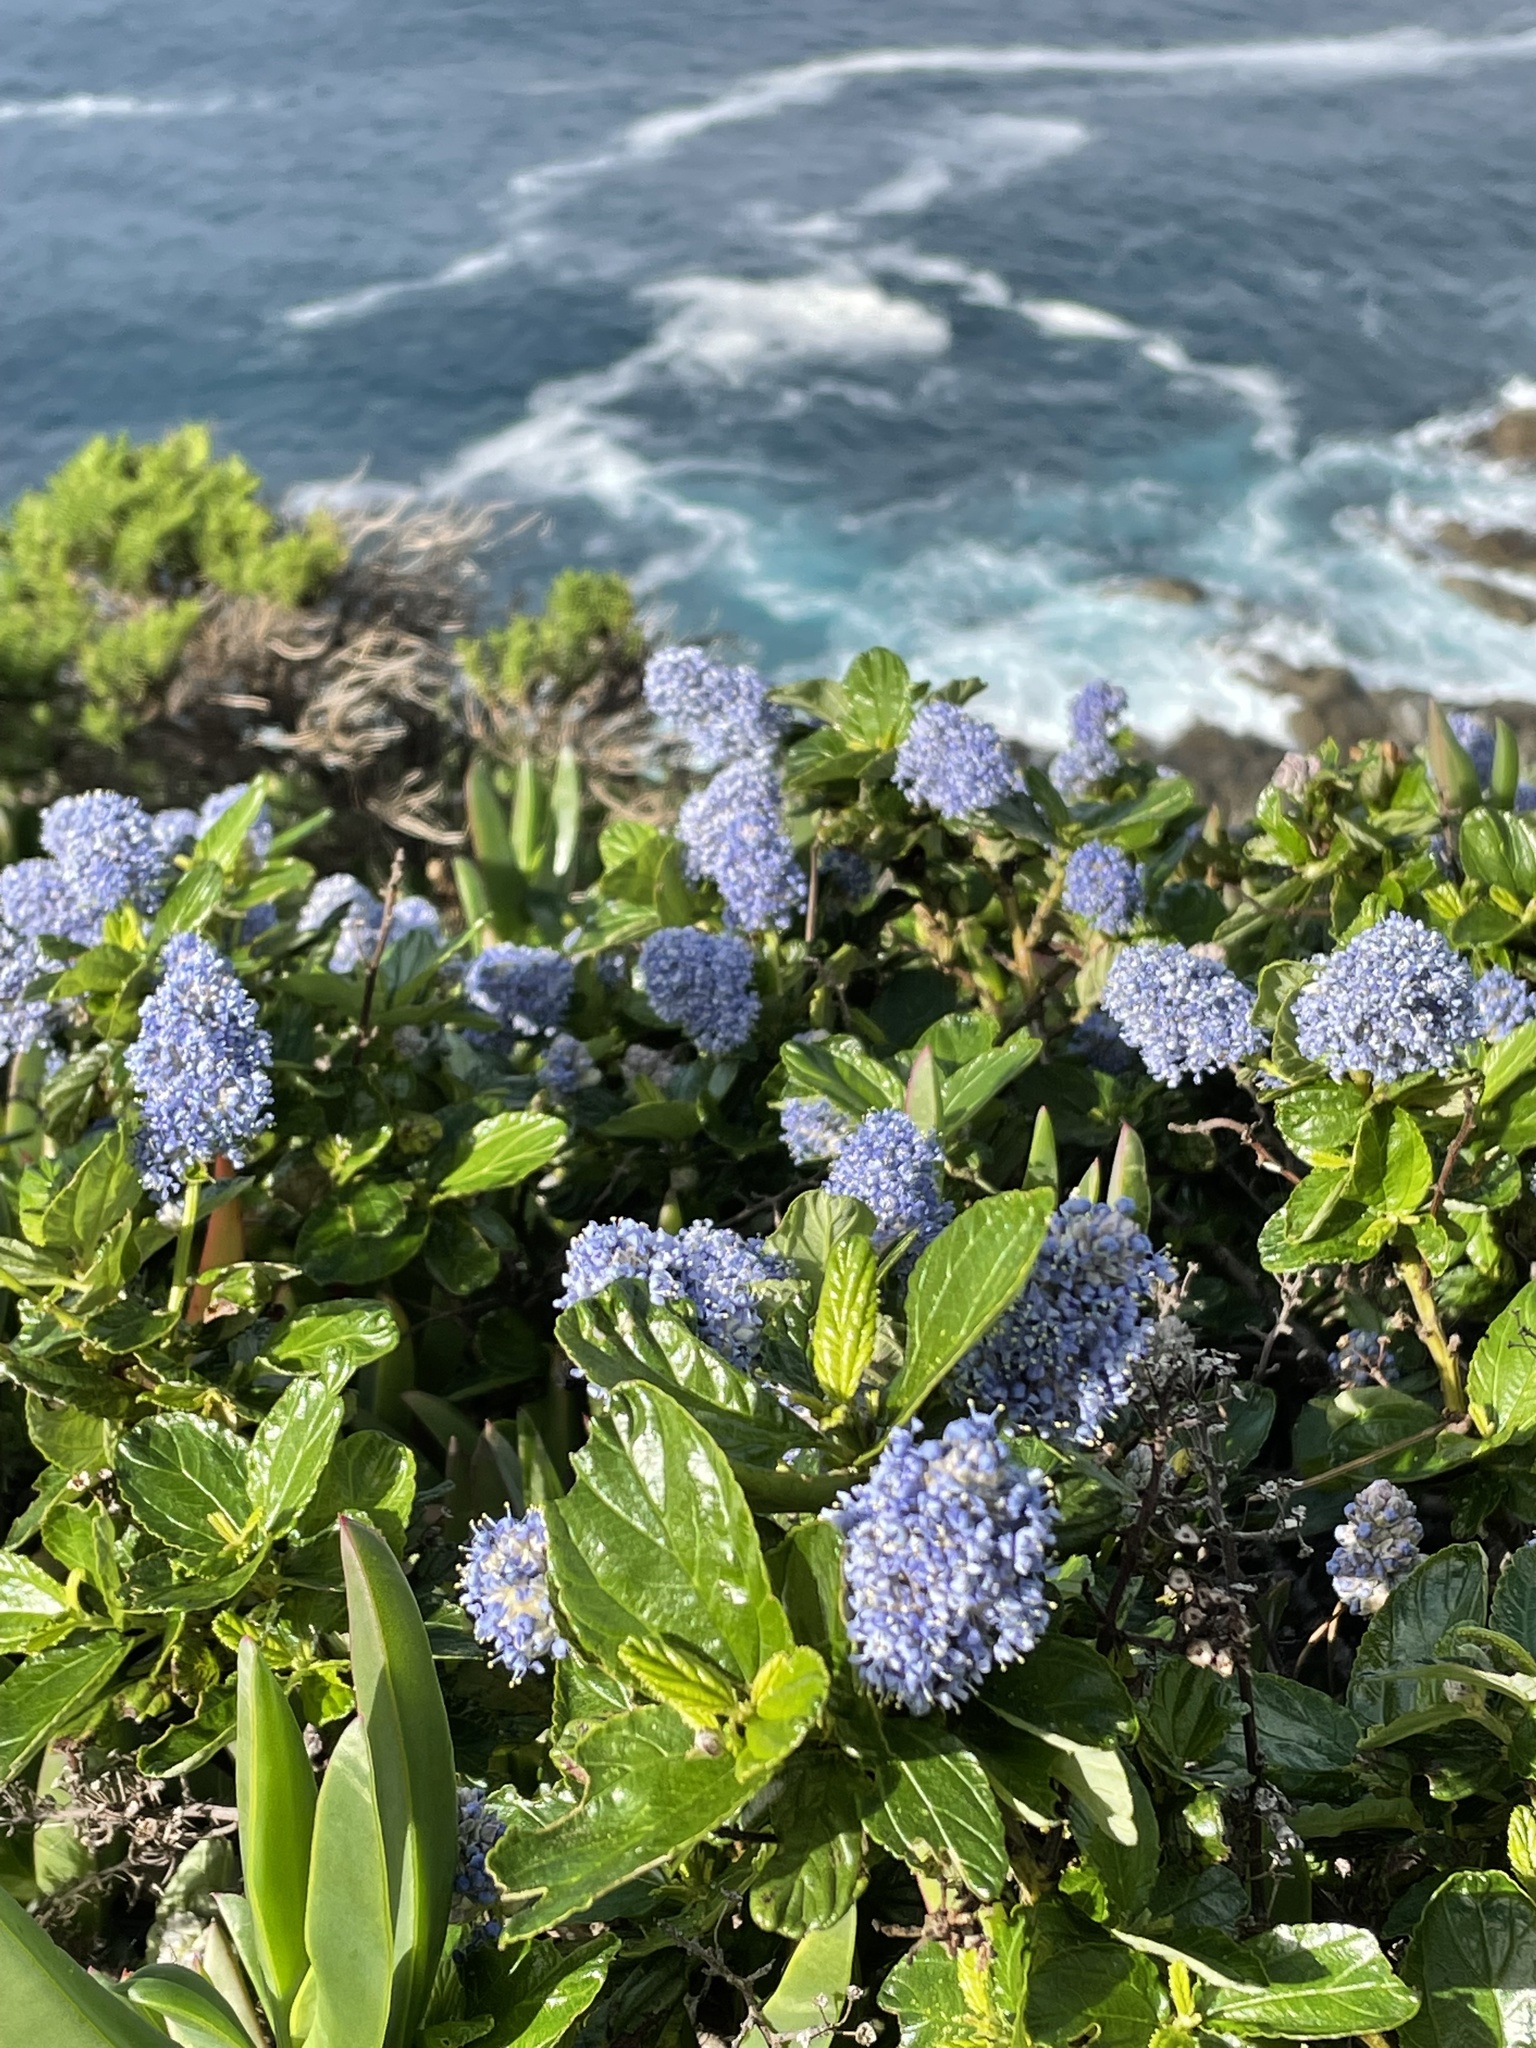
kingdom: Plantae
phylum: Tracheophyta
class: Magnoliopsida
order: Rosales
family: Rhamnaceae
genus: Ceanothus
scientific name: Ceanothus thyrsiflorus
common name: California-lilac
